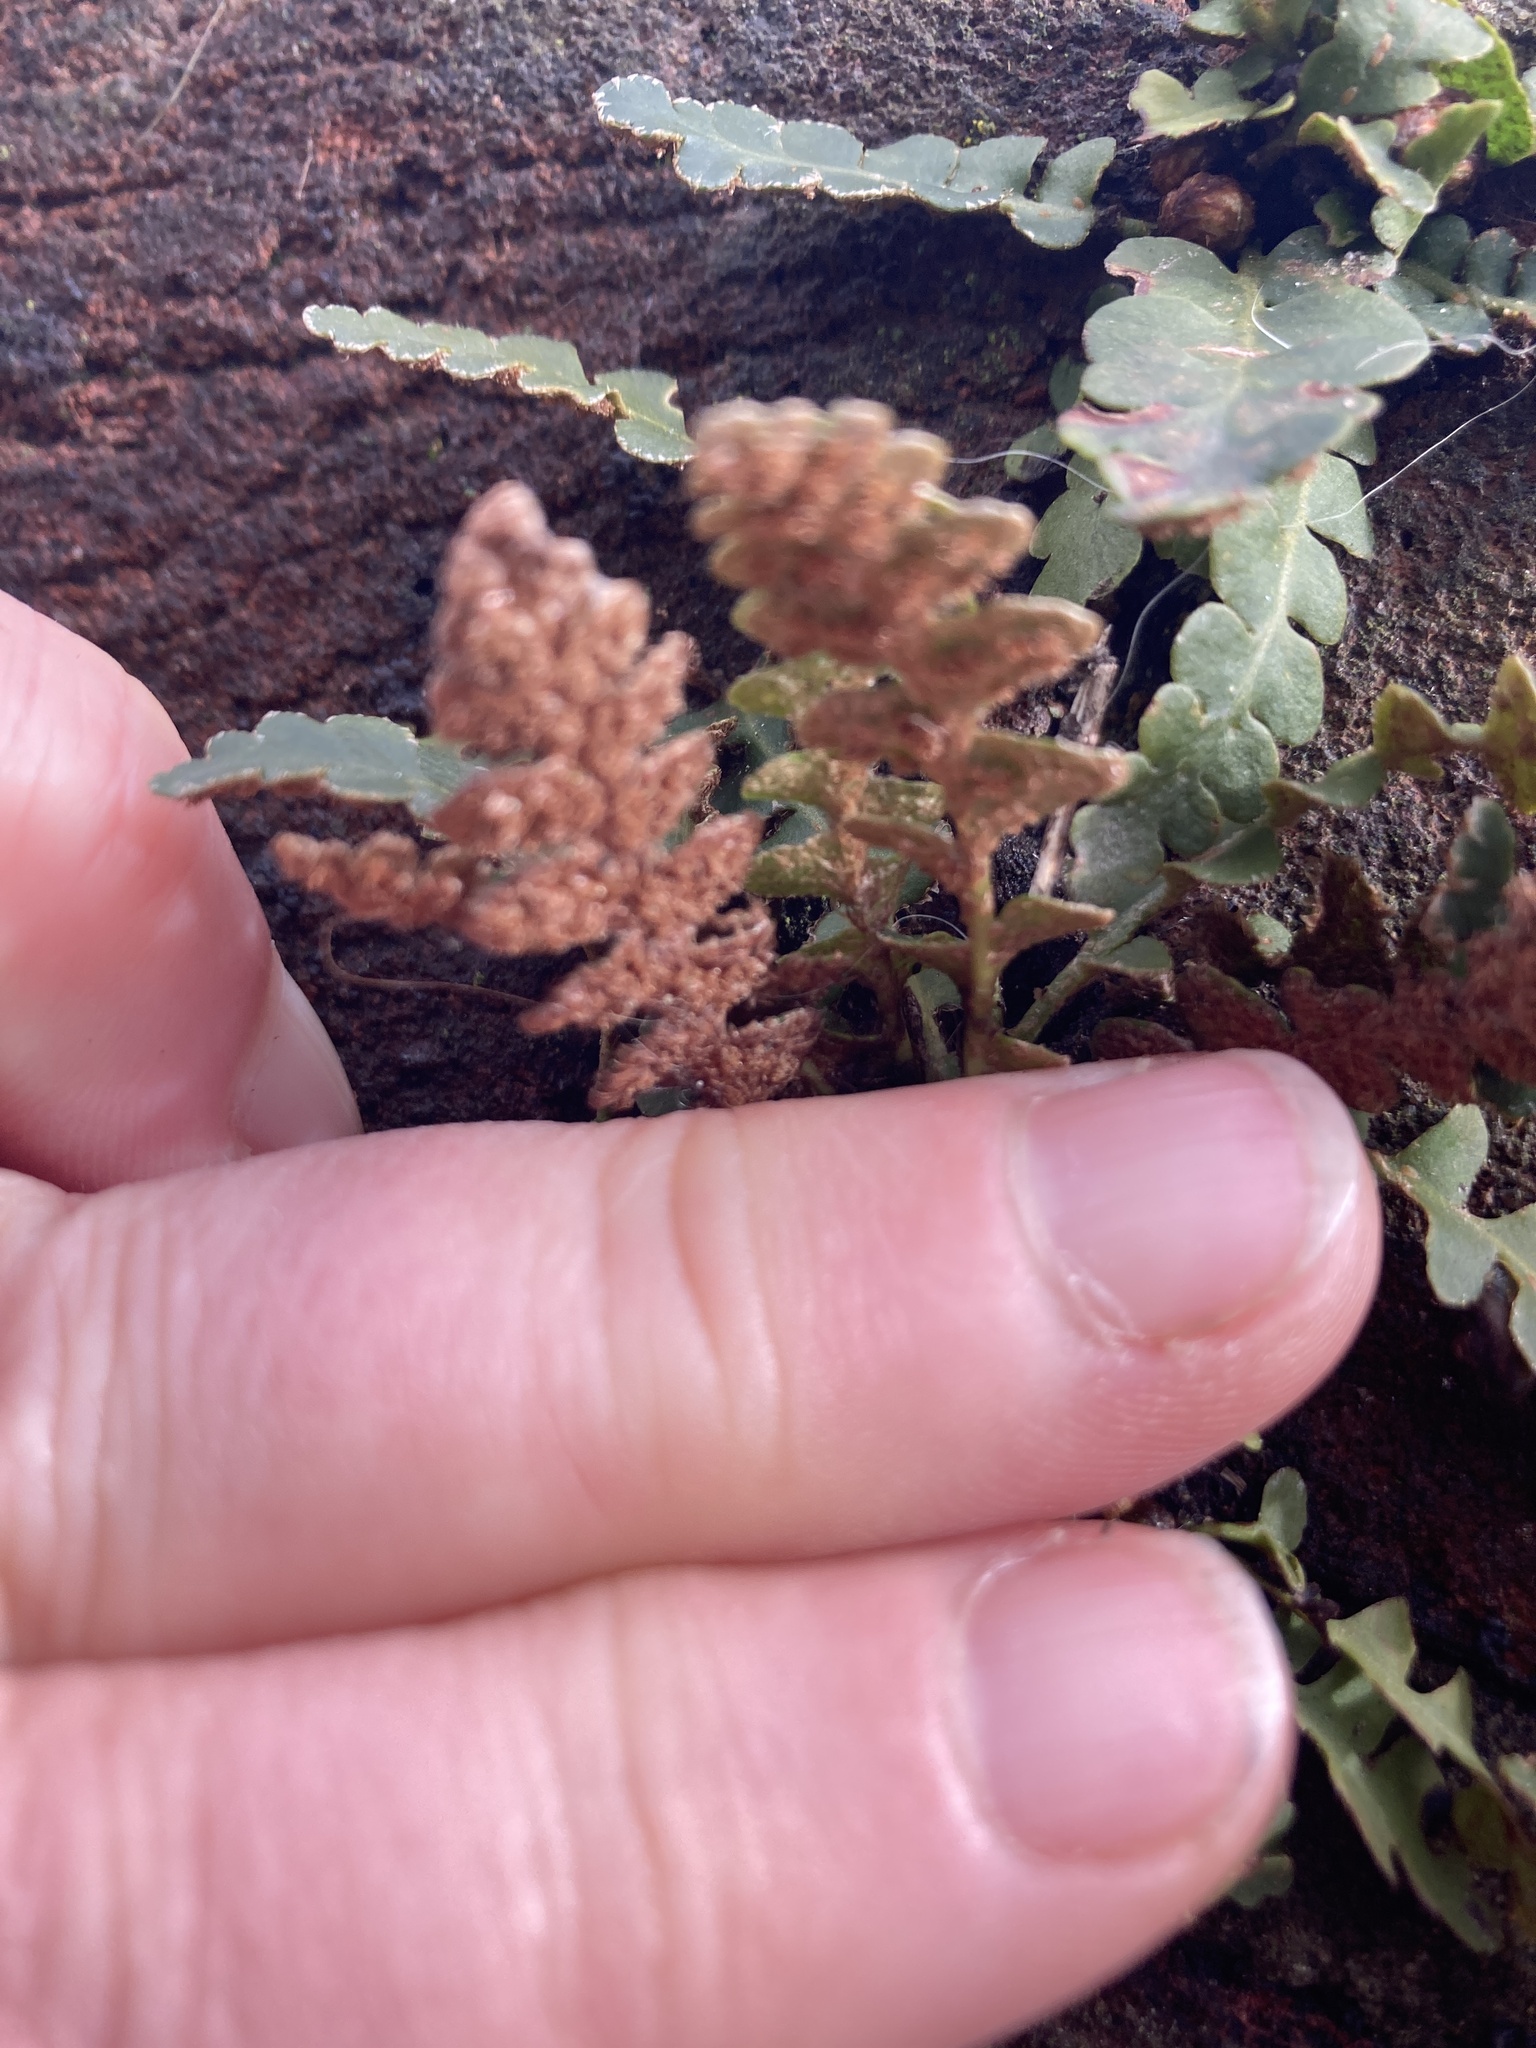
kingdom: Plantae
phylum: Tracheophyta
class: Polypodiopsida
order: Polypodiales
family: Aspleniaceae
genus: Asplenium
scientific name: Asplenium ceterach
